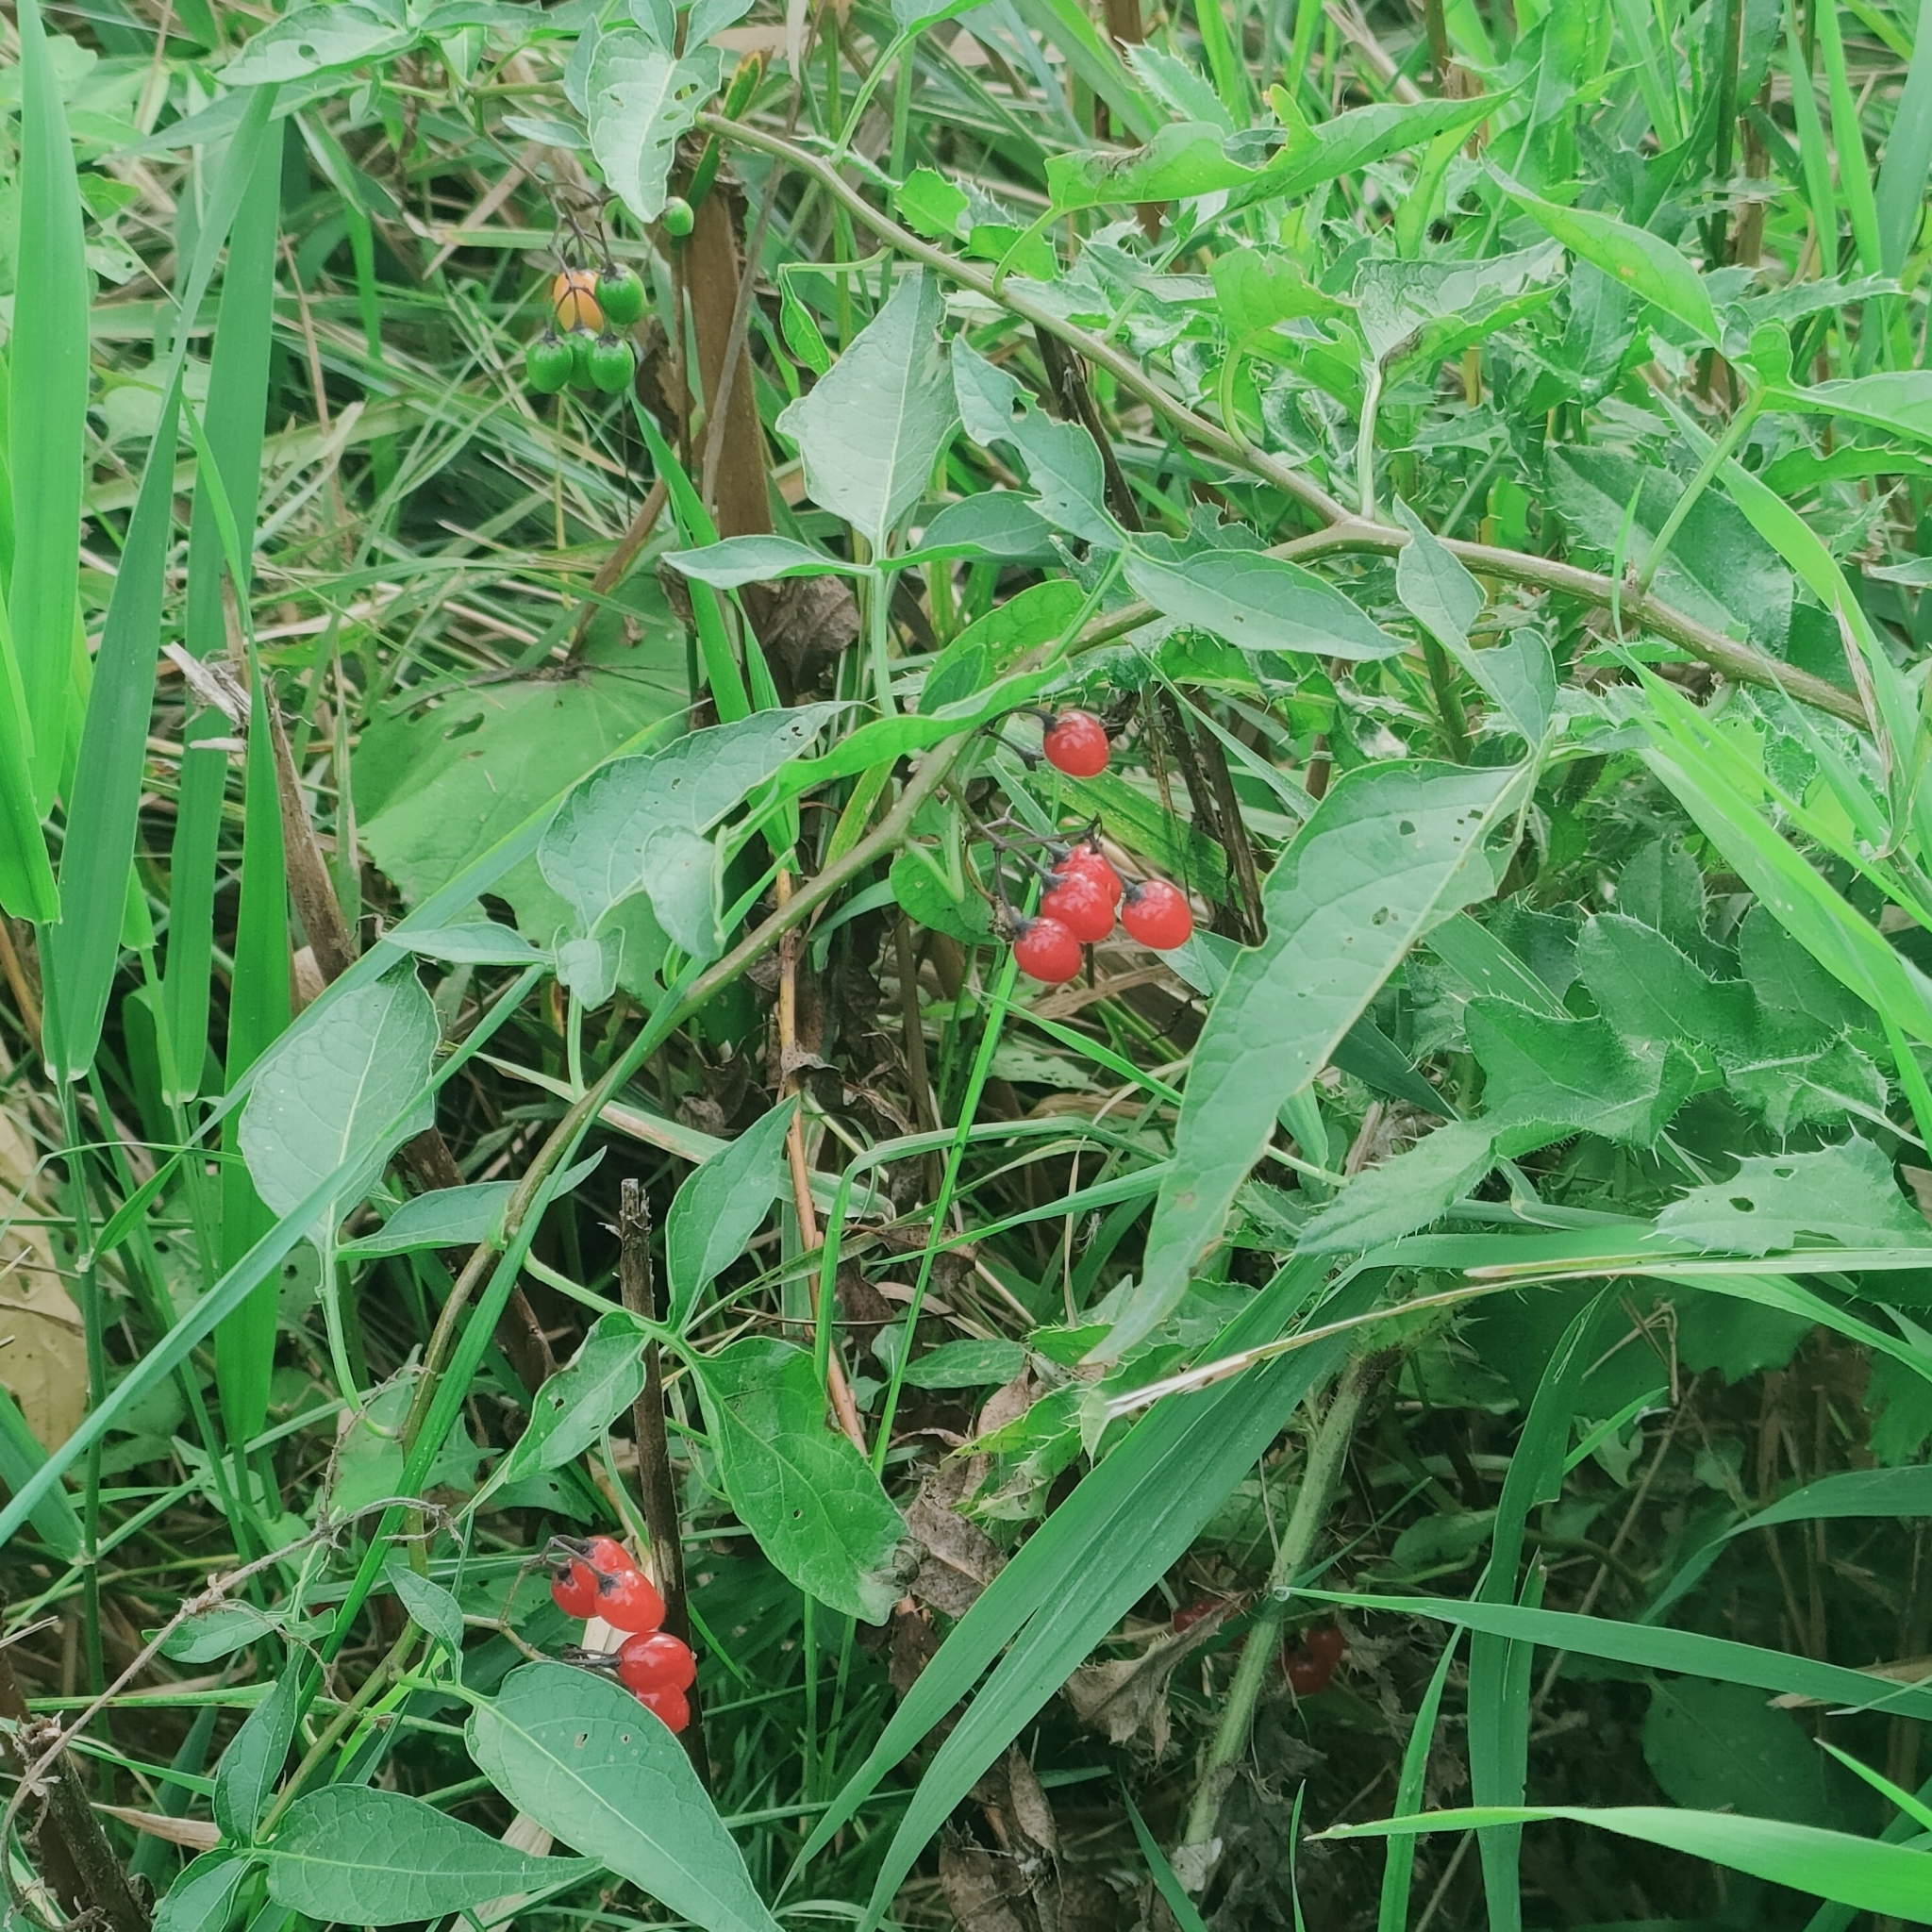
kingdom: Plantae
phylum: Tracheophyta
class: Magnoliopsida
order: Solanales
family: Solanaceae
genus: Solanum
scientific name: Solanum dulcamara
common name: Climbing nightshade
